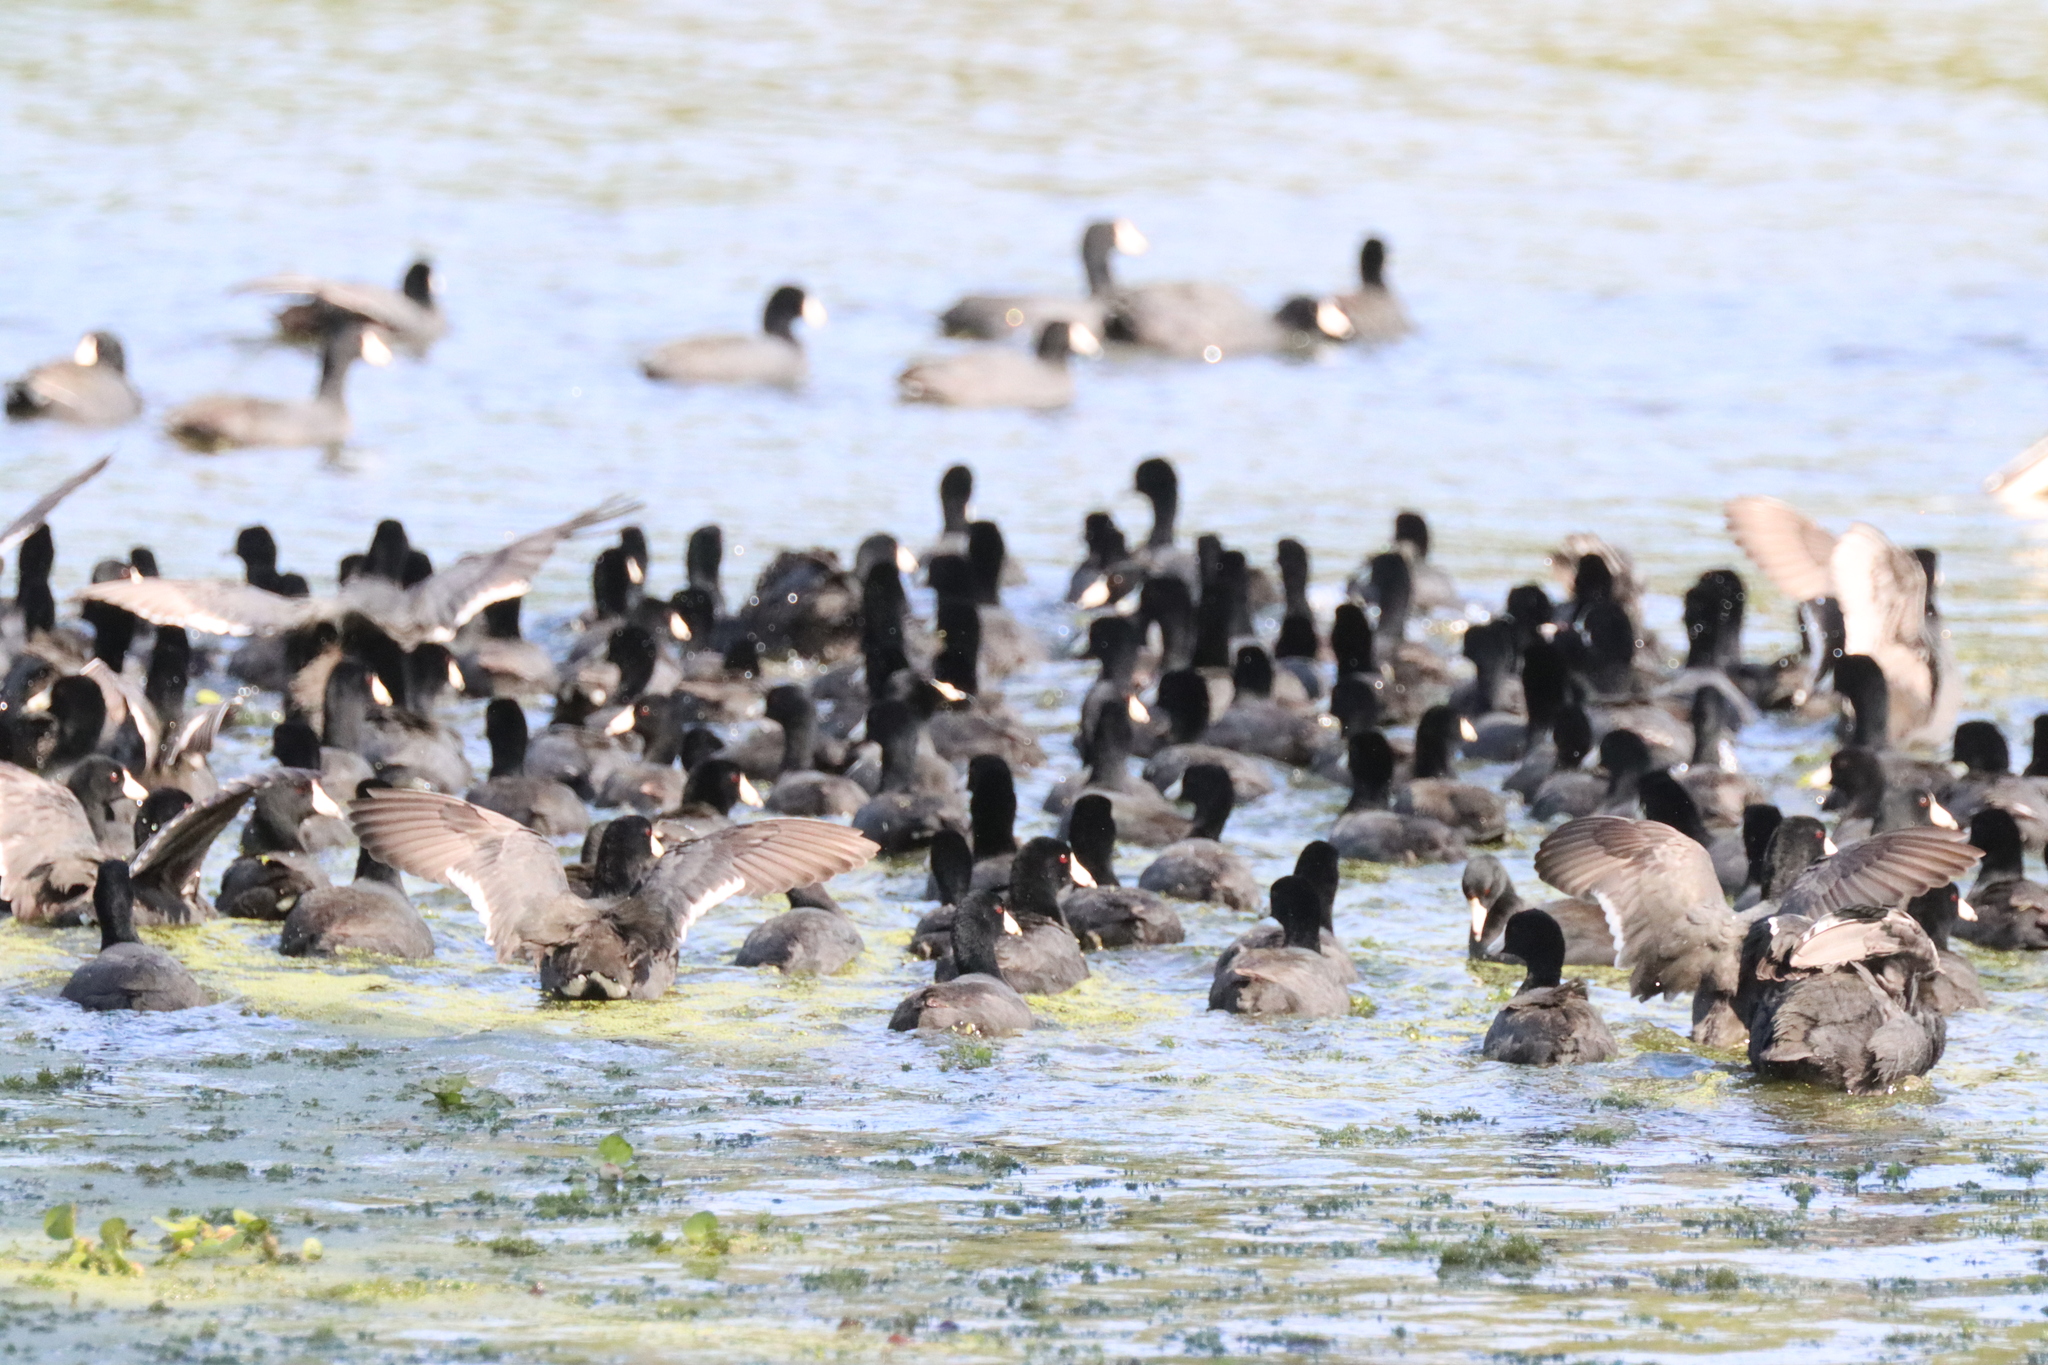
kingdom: Animalia
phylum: Chordata
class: Aves
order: Gruiformes
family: Rallidae
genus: Fulica
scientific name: Fulica americana
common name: American coot
